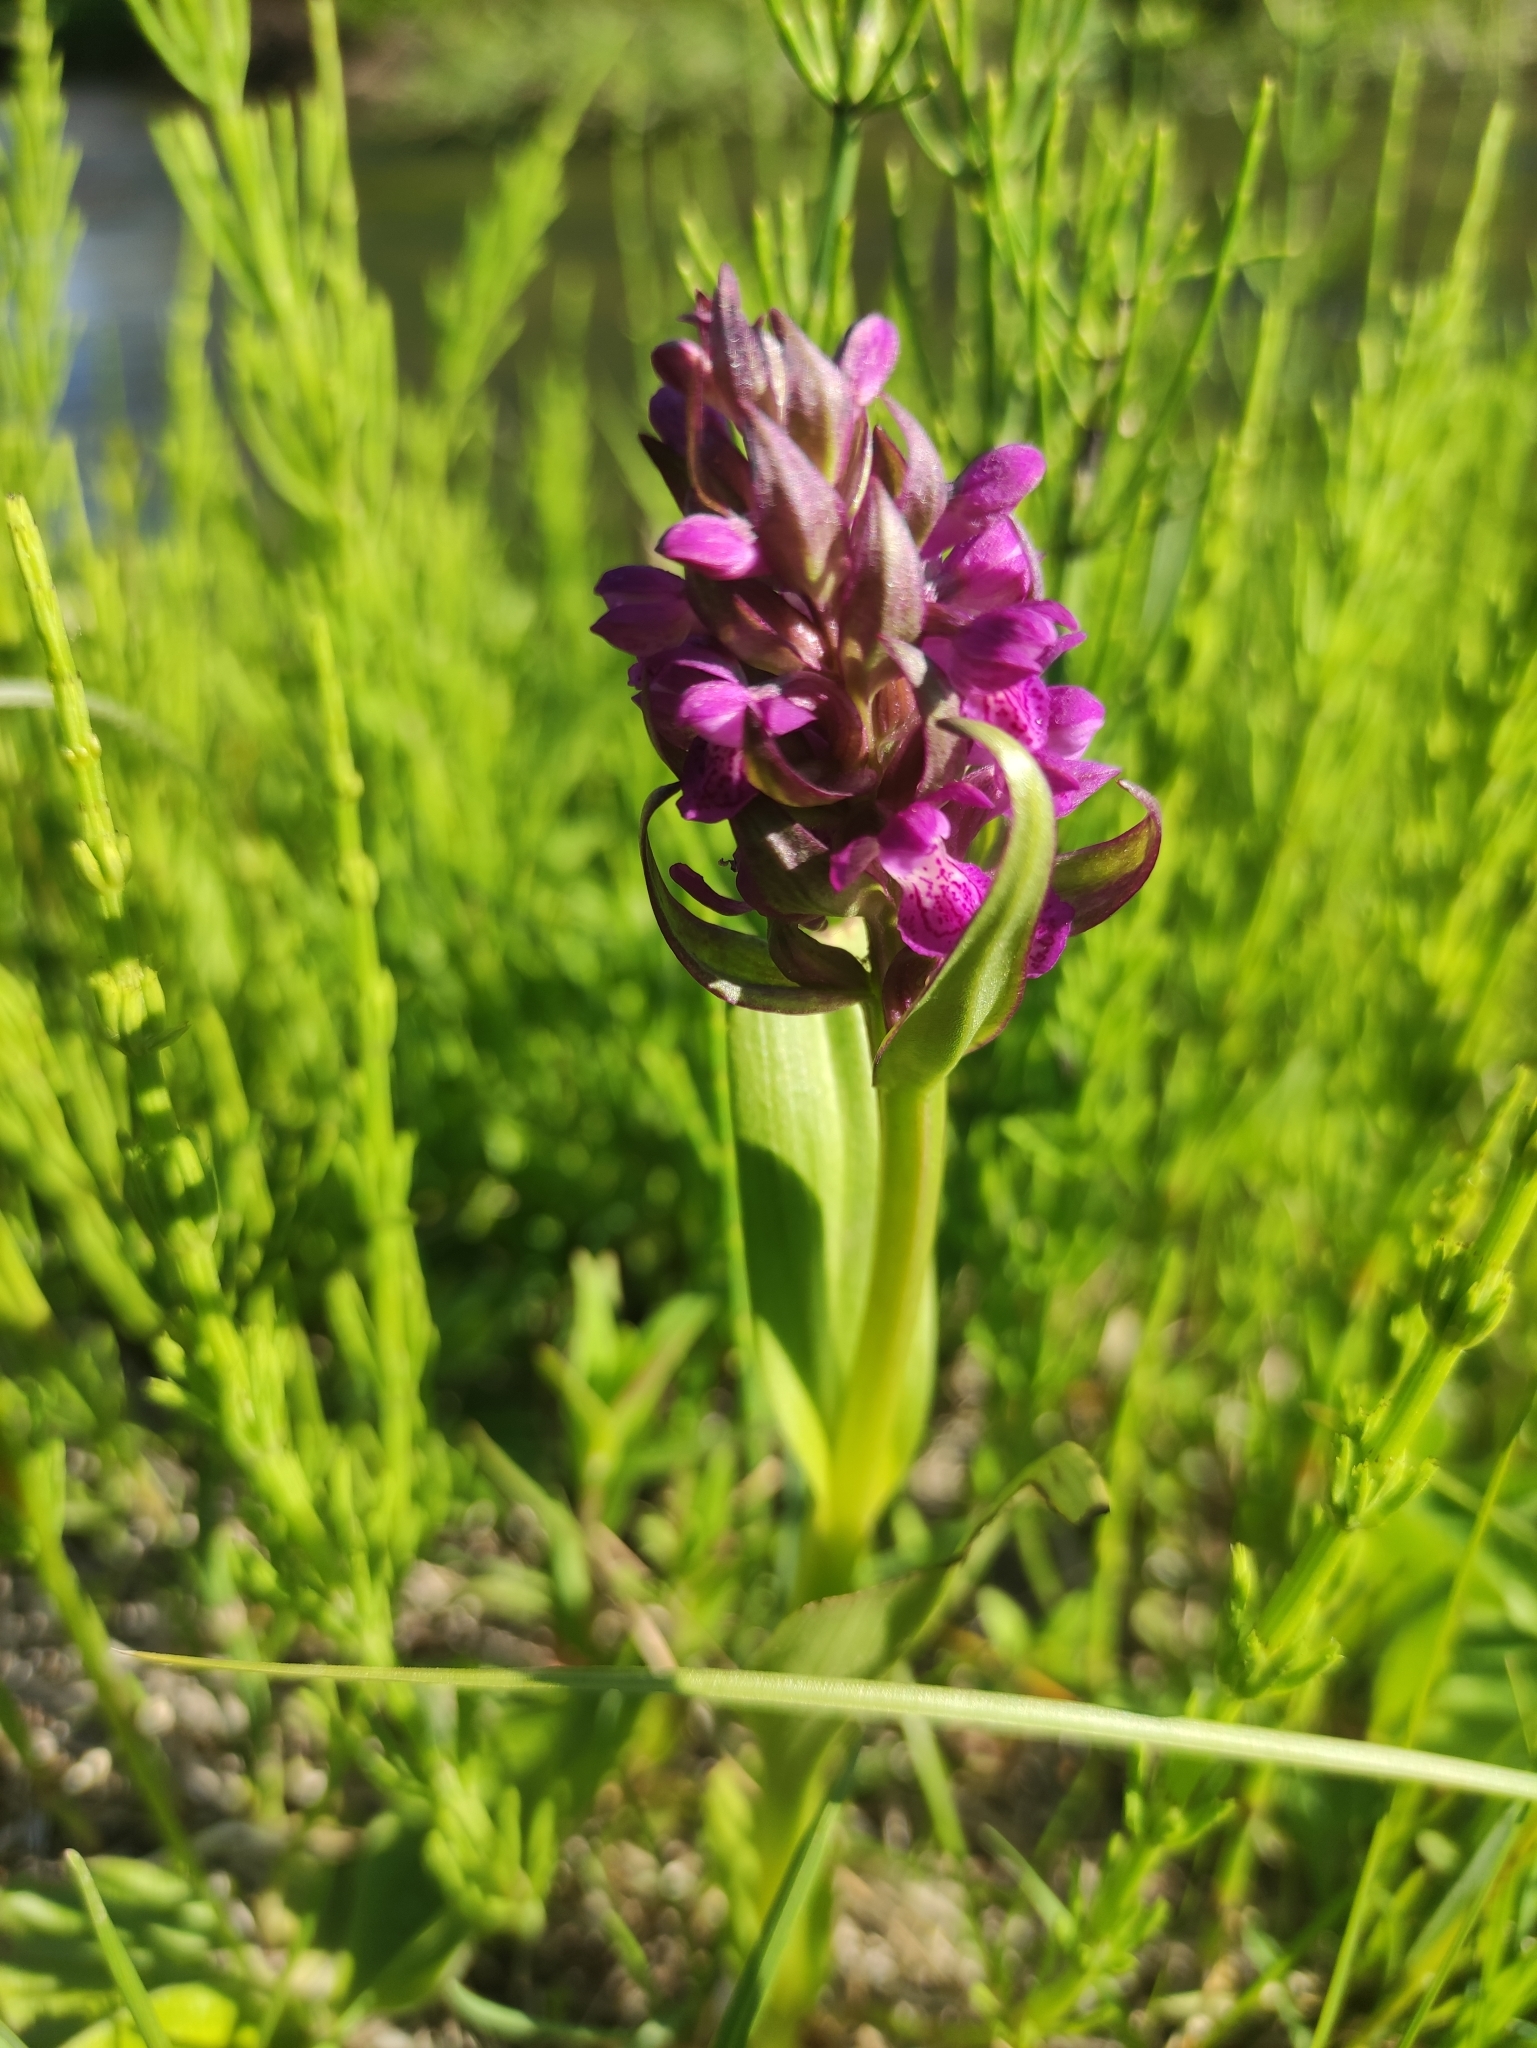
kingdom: Plantae
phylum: Tracheophyta
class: Liliopsida
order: Asparagales
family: Orchidaceae
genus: Dactylorhiza
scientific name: Dactylorhiza incarnata
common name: Early marsh-orchid
